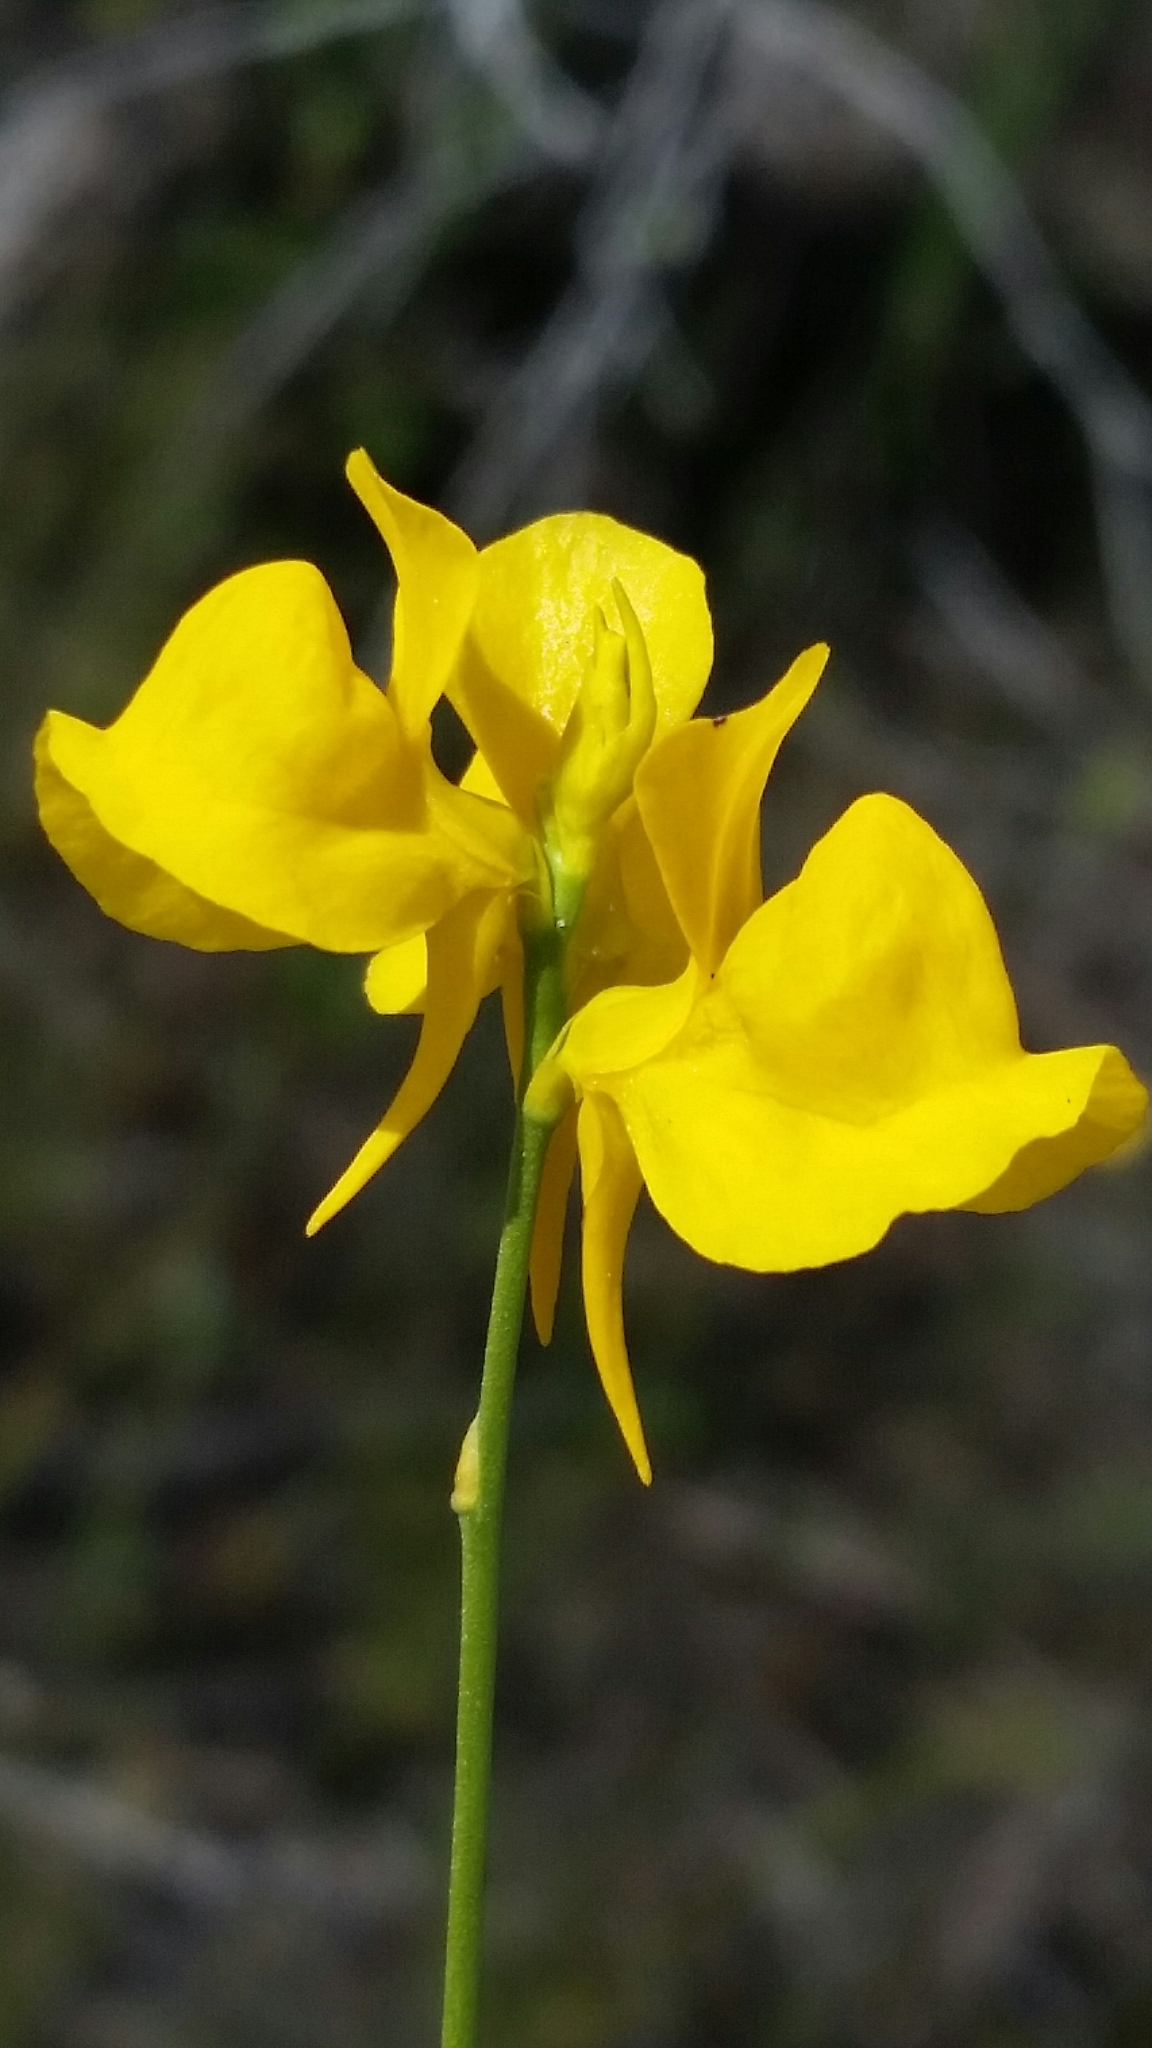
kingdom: Plantae
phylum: Tracheophyta
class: Magnoliopsida
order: Lamiales
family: Lentibulariaceae
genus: Utricularia
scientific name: Utricularia cornuta
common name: Horned bladderwort
